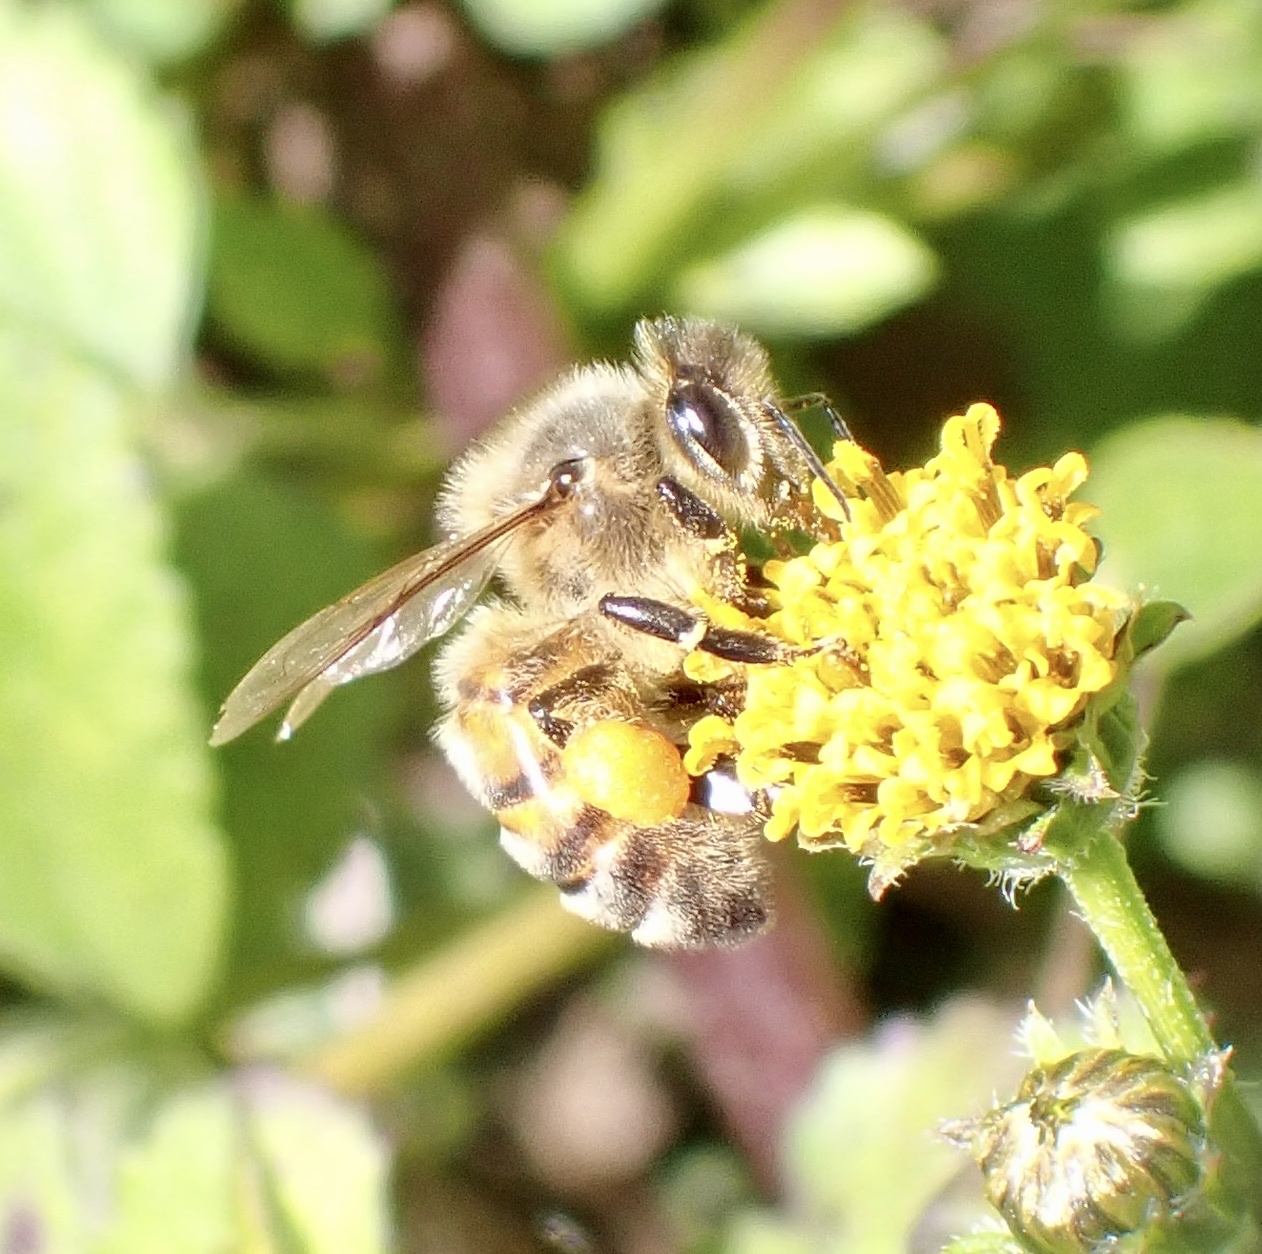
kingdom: Animalia
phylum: Arthropoda
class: Insecta
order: Hymenoptera
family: Apidae
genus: Apis
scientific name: Apis mellifera
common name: Honey bee
